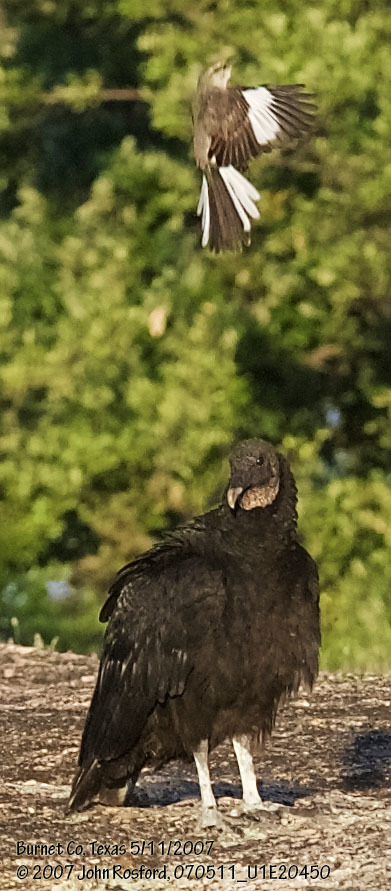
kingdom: Animalia
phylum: Chordata
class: Aves
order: Passeriformes
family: Mimidae
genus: Mimus
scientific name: Mimus polyglottos
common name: Northern mockingbird
